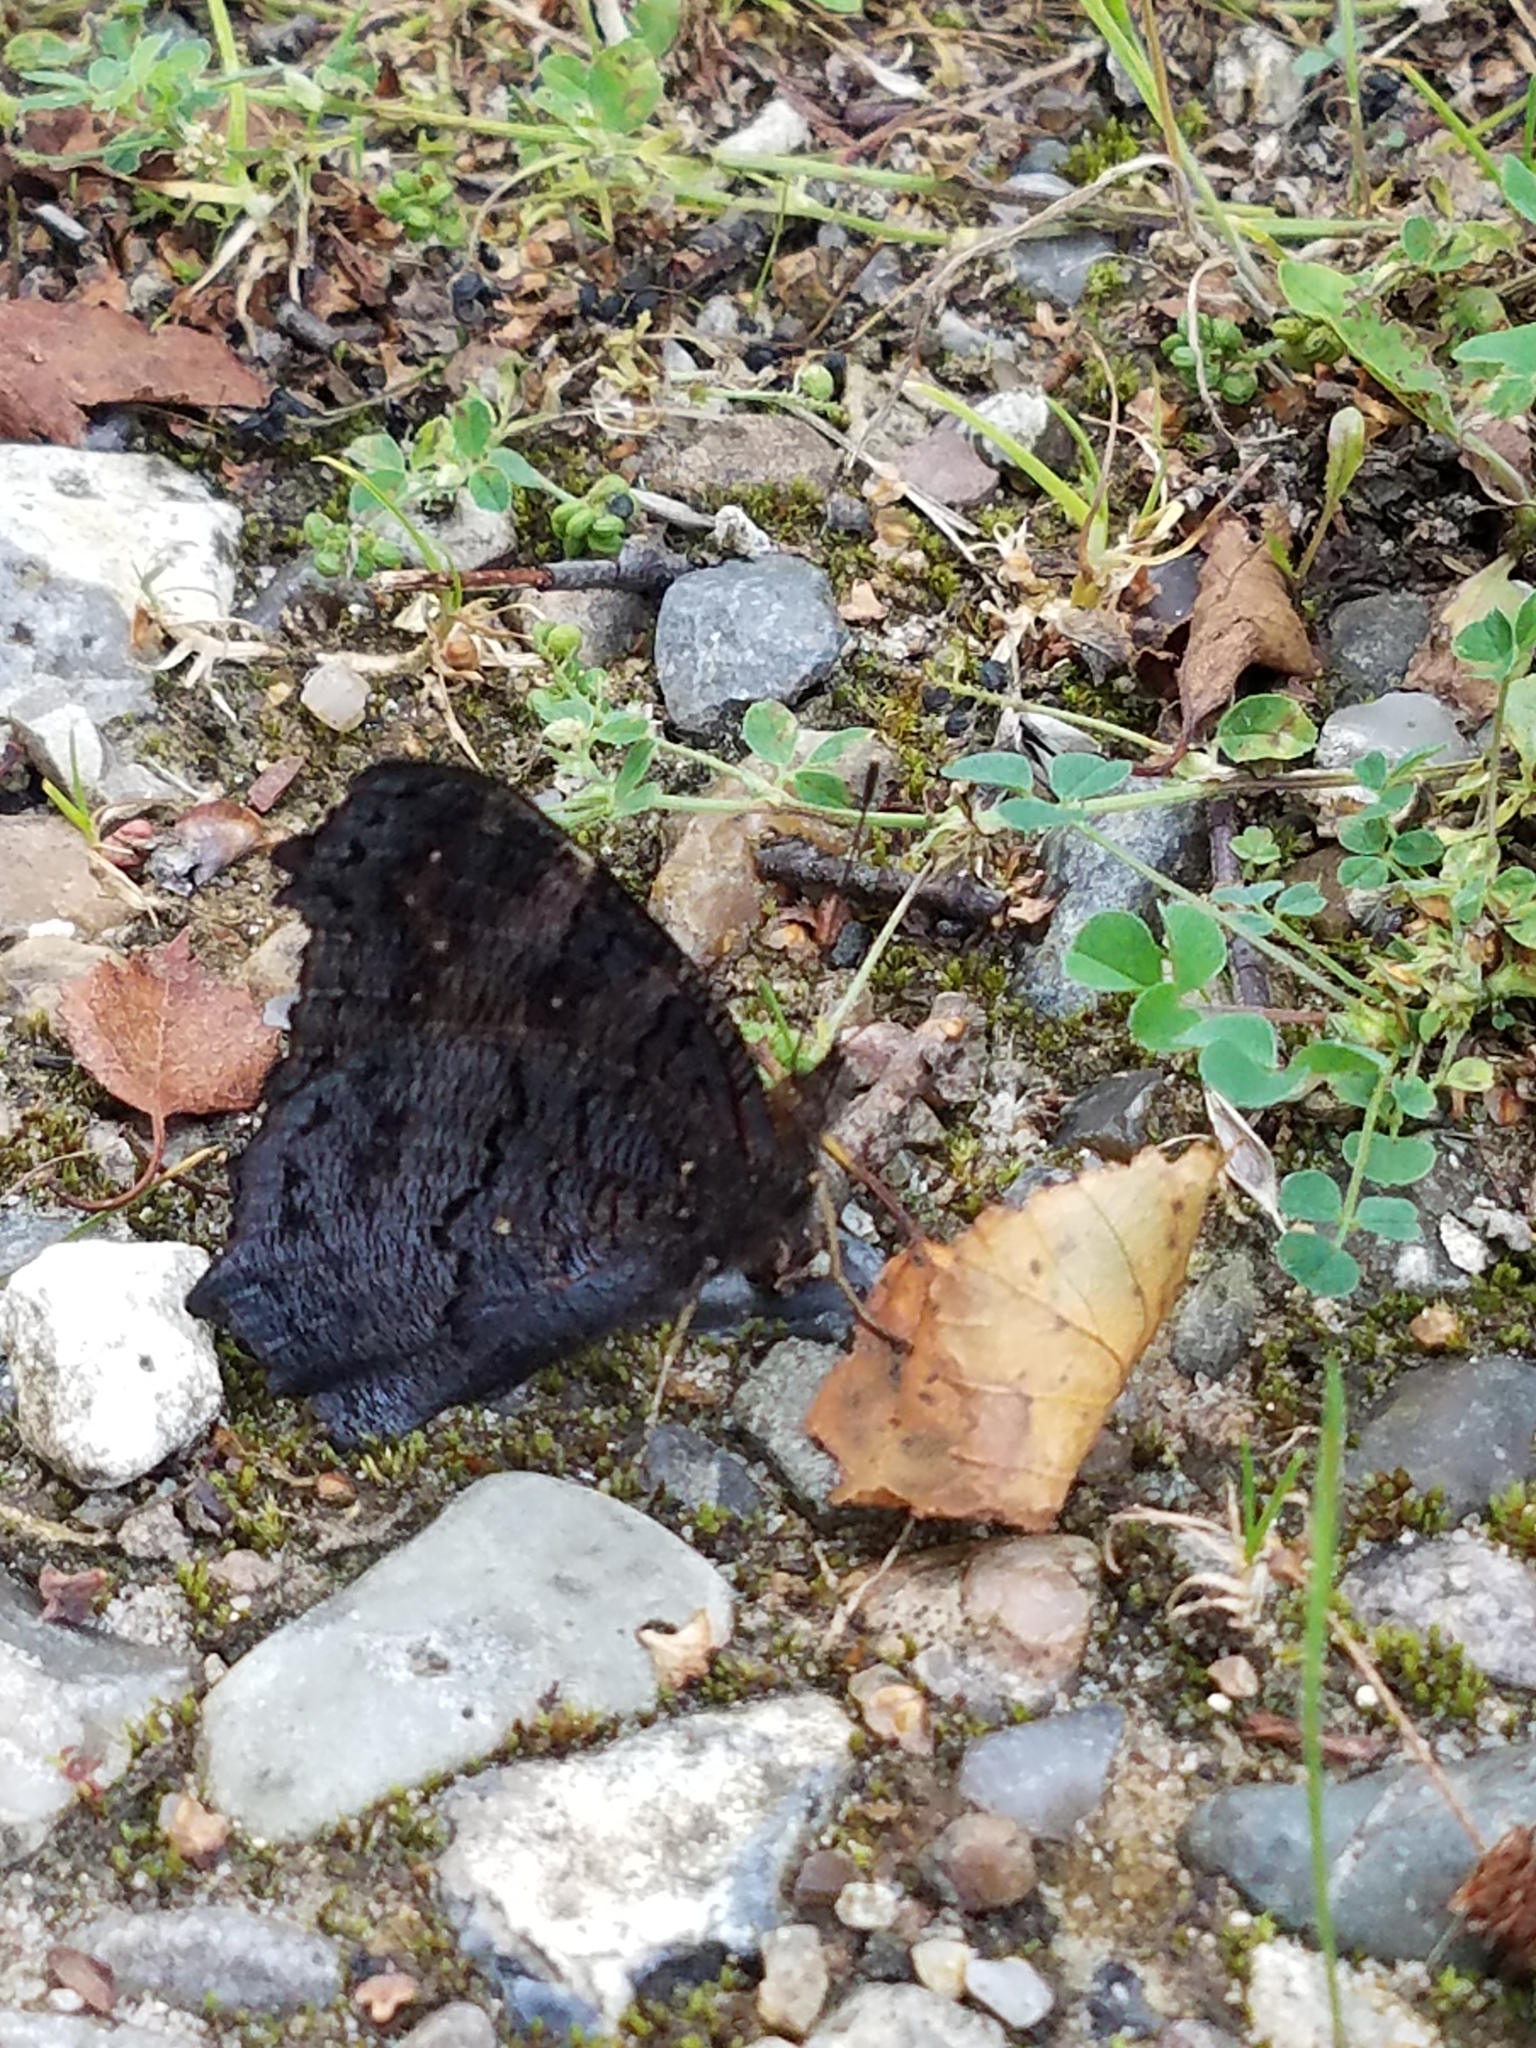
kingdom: Animalia
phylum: Arthropoda
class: Insecta
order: Lepidoptera
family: Nymphalidae
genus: Aglais
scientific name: Aglais io
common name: Peacock
